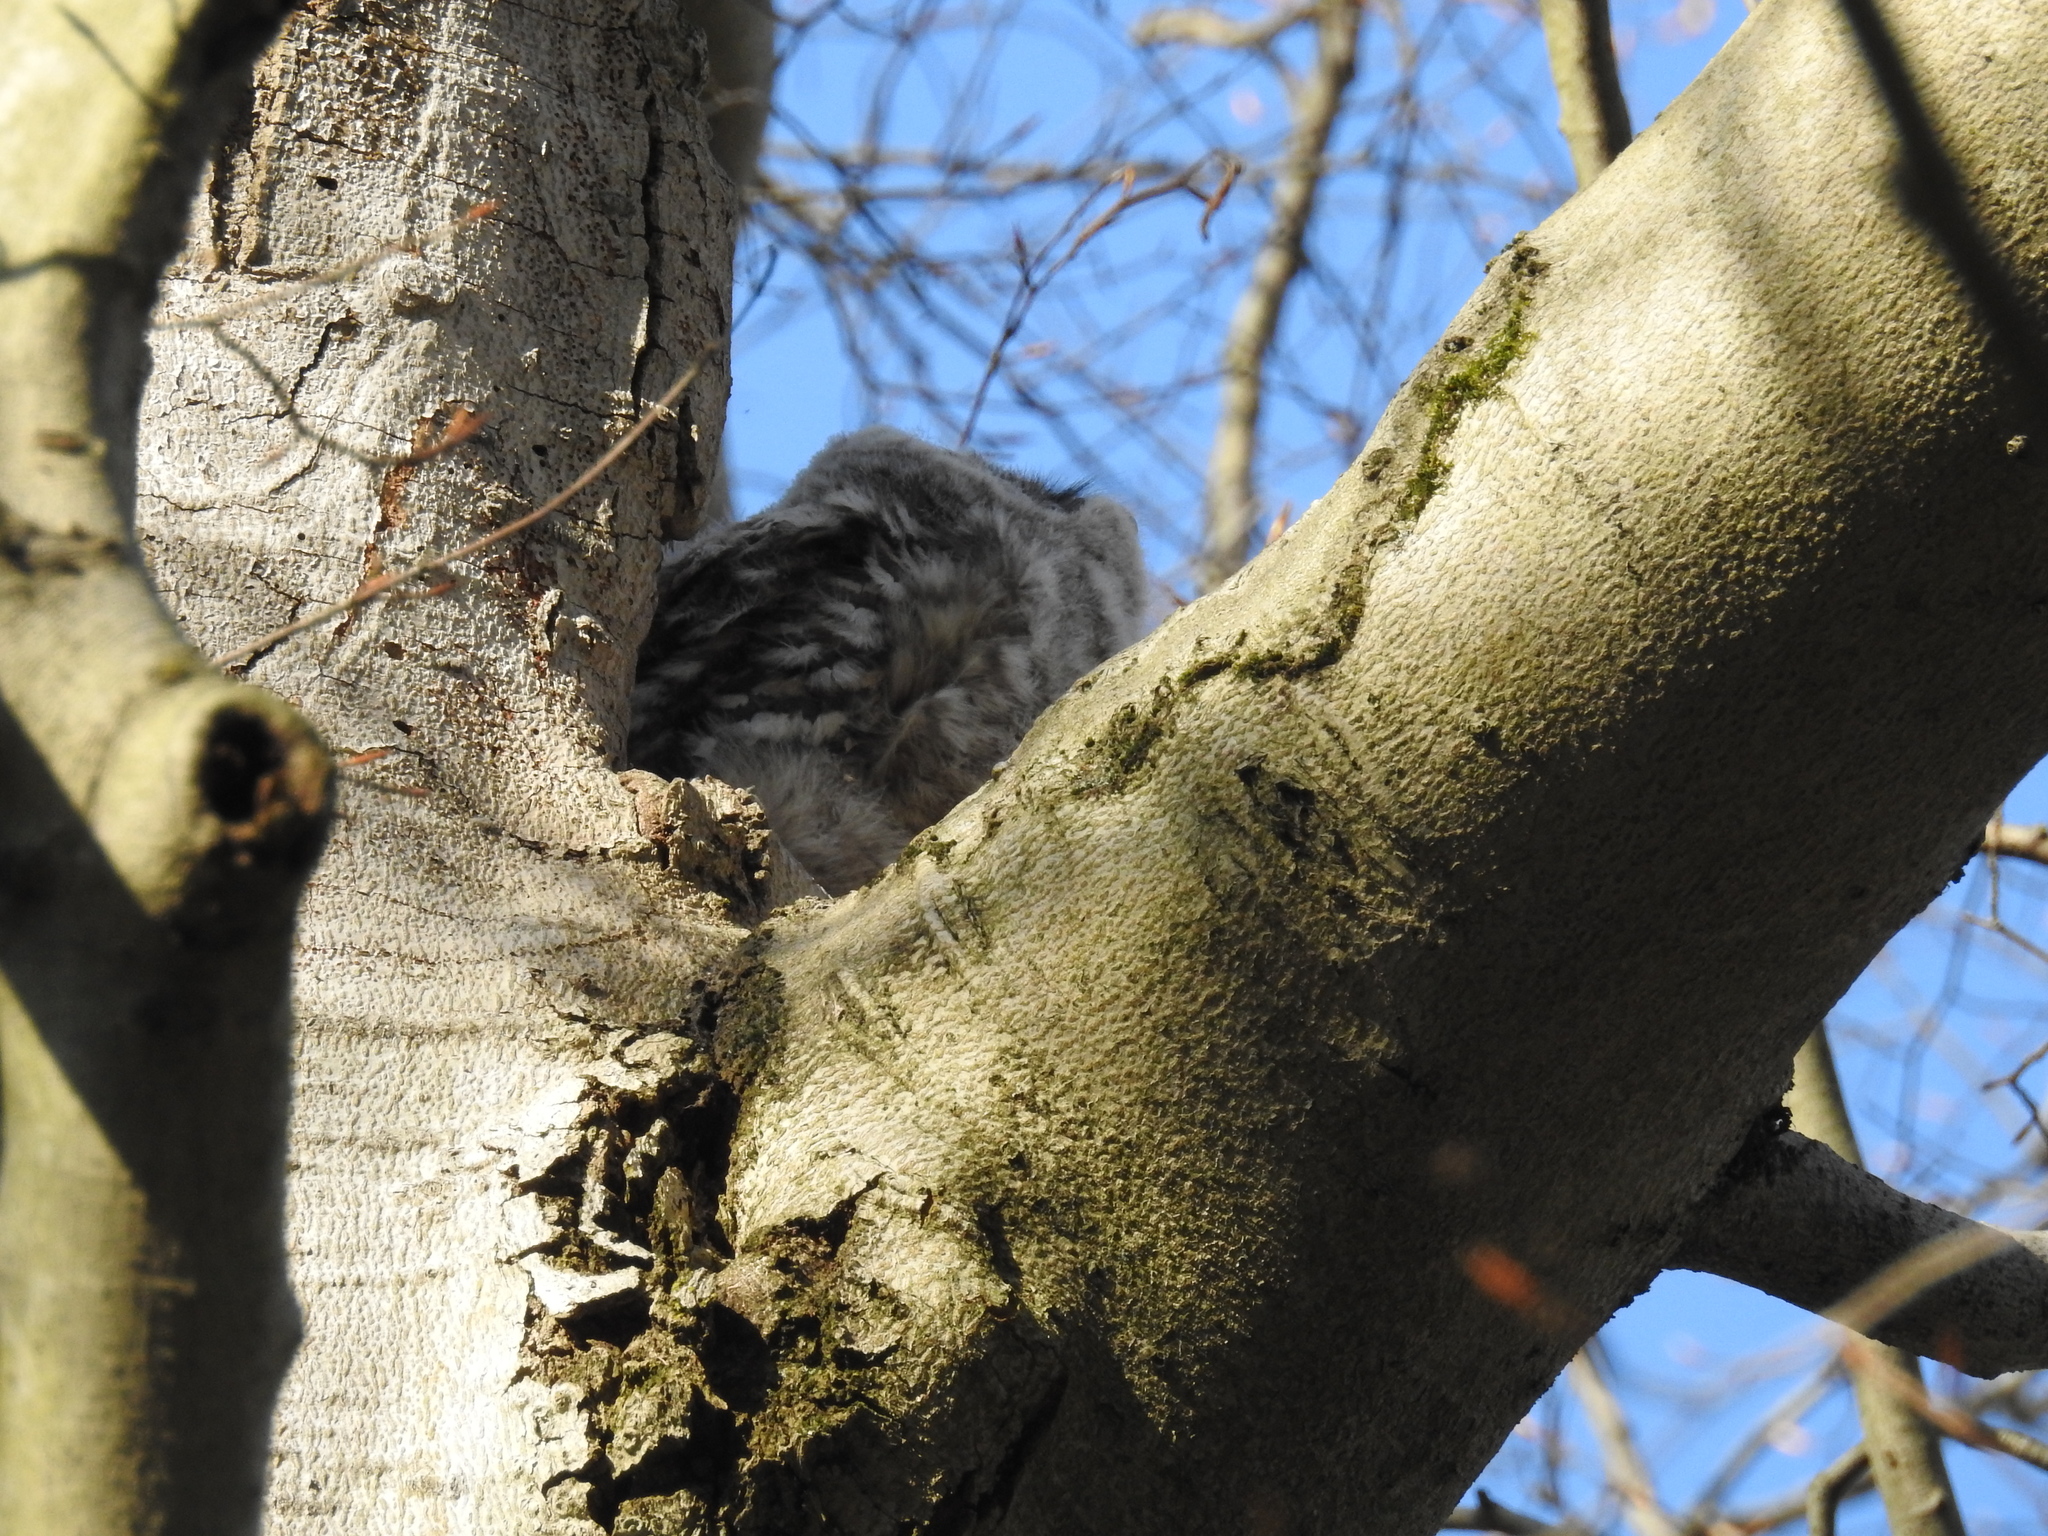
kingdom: Animalia
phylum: Chordata
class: Aves
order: Strigiformes
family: Strigidae
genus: Strix
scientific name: Strix varia
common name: Barred owl
